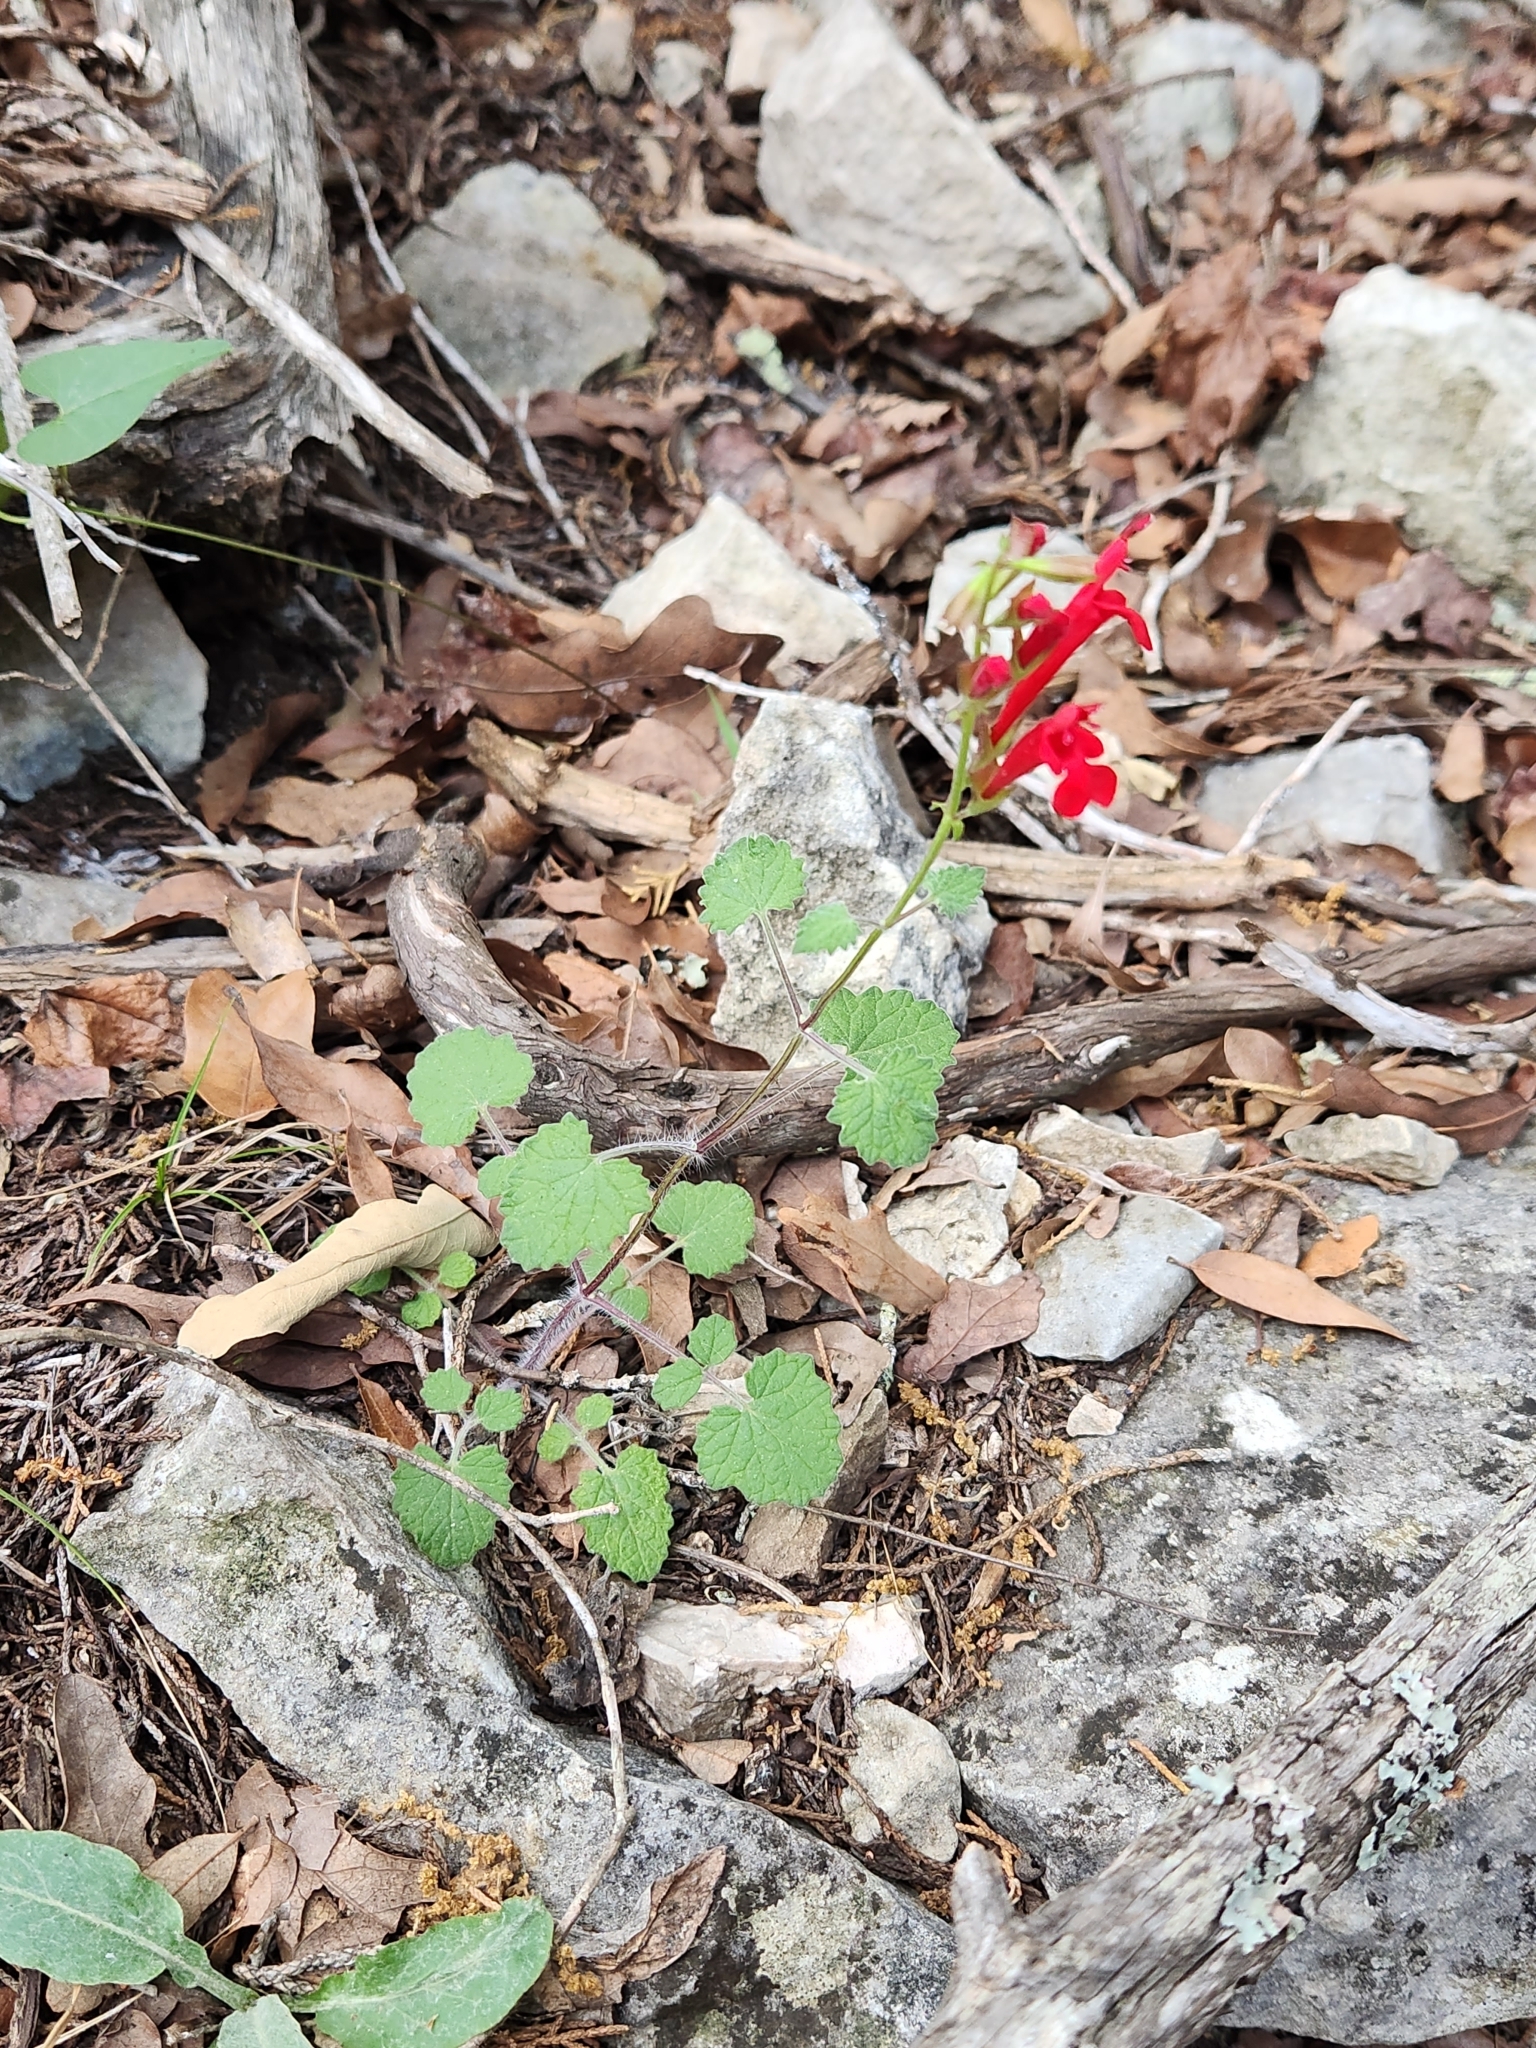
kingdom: Plantae
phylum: Tracheophyta
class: Magnoliopsida
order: Lamiales
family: Lamiaceae
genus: Salvia
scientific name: Salvia roemeriana
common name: Cedar sage
